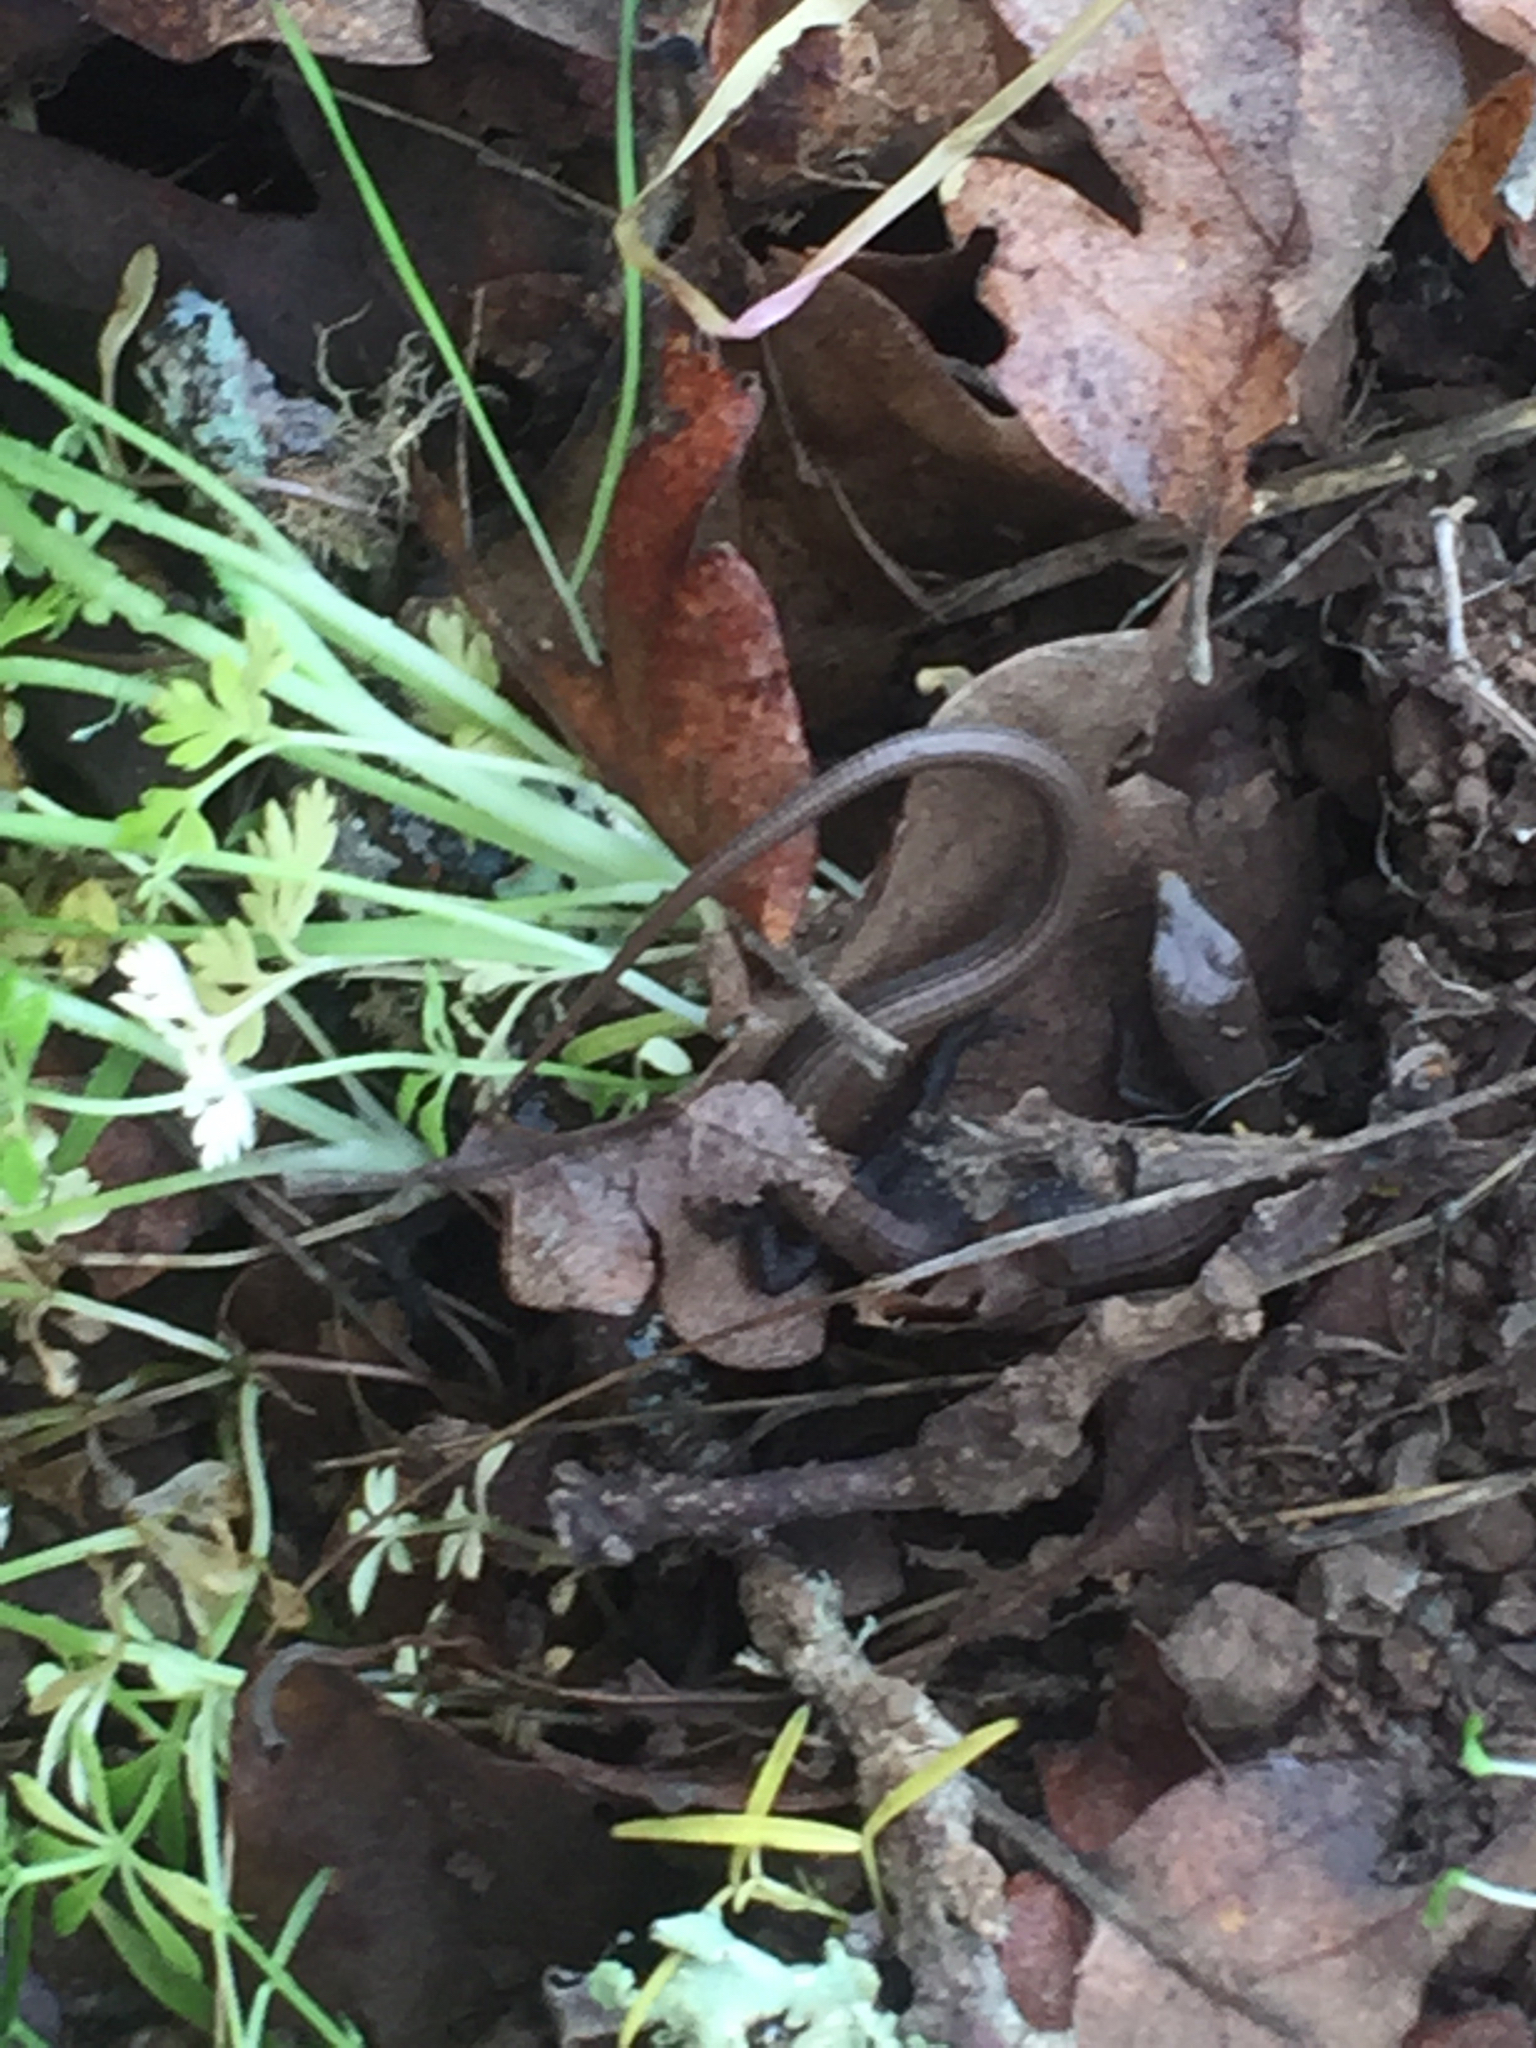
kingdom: Animalia
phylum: Chordata
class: Squamata
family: Anguidae
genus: Elgaria
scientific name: Elgaria multicarinata
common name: Southern alligator lizard
